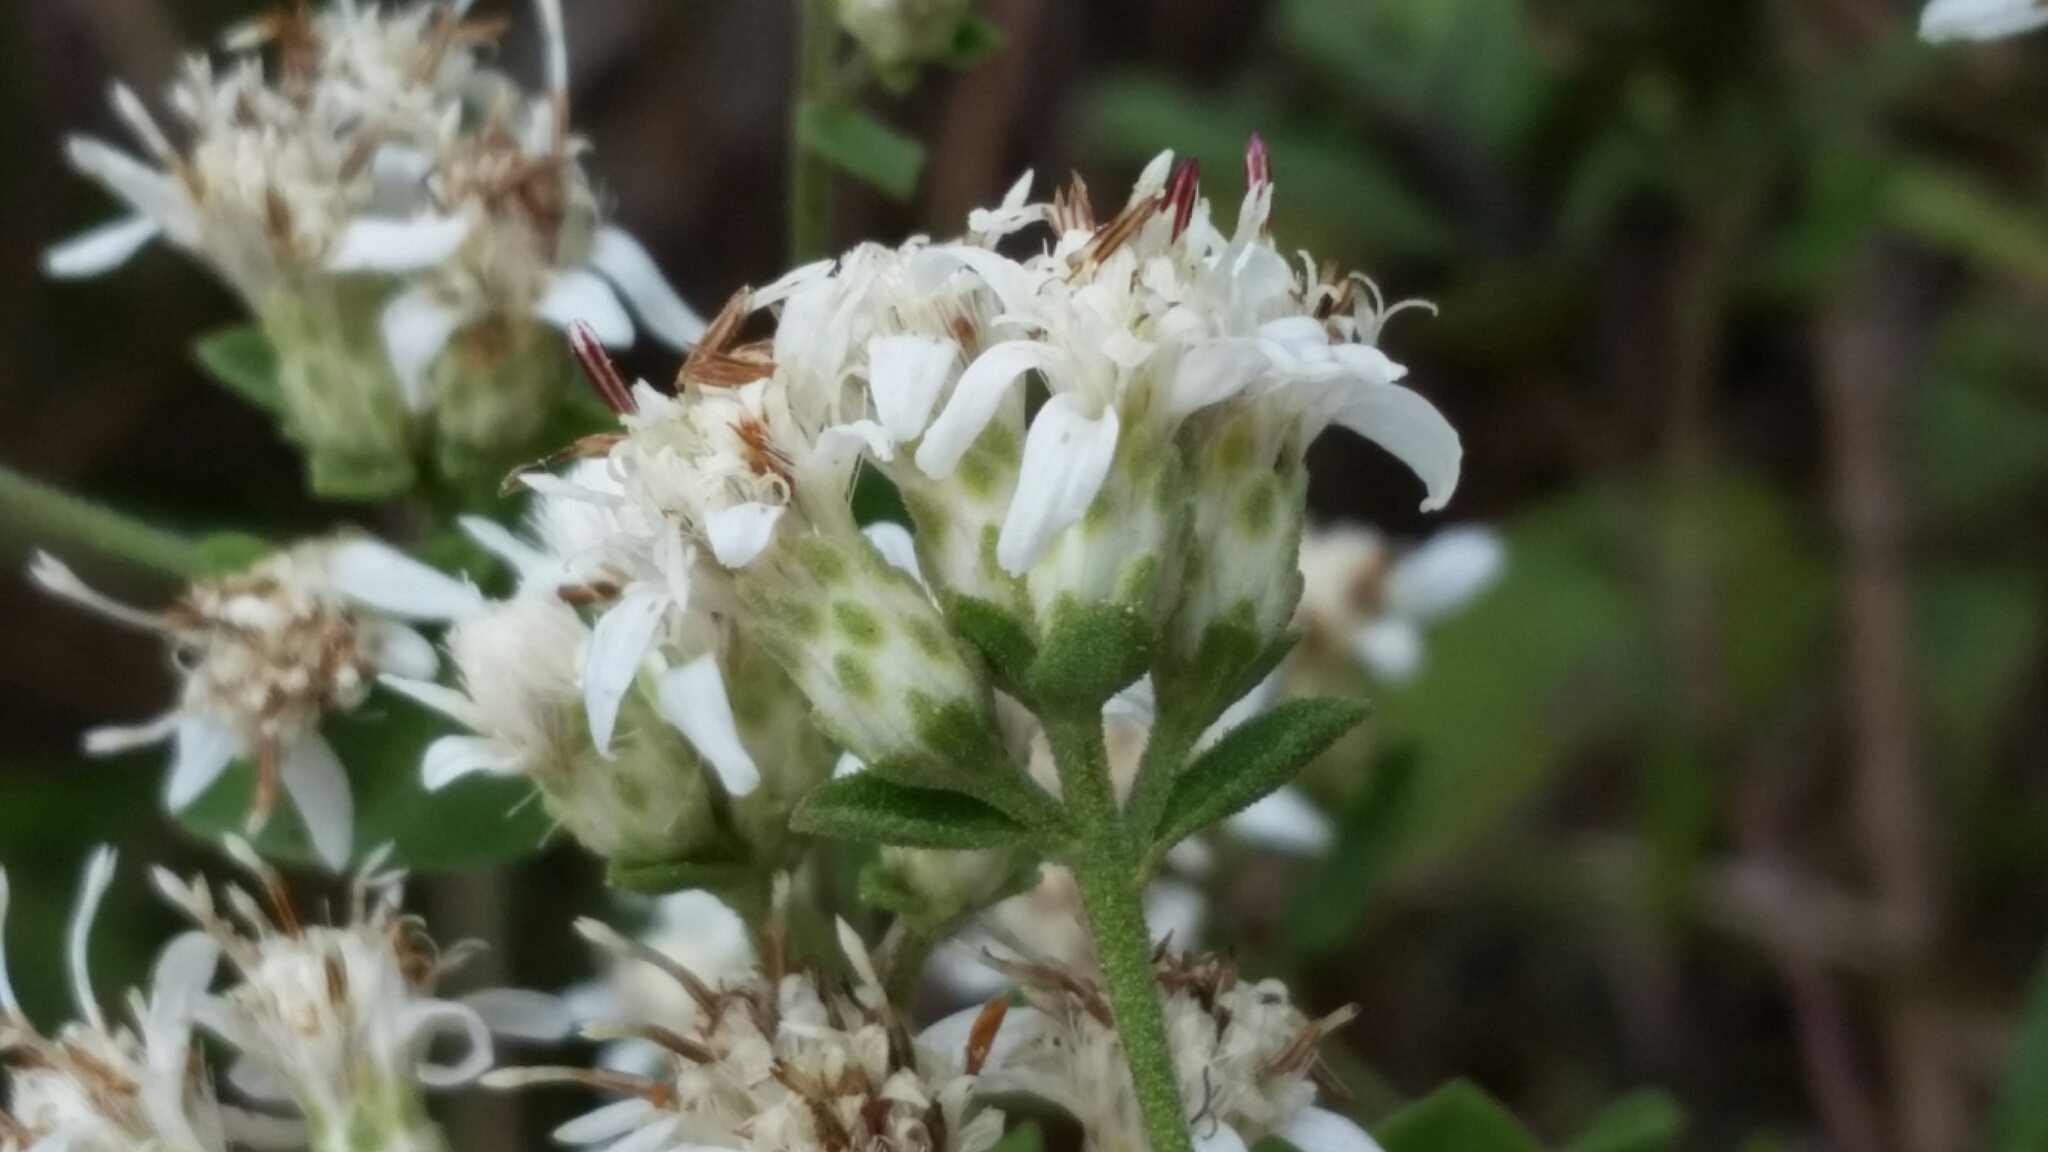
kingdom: Plantae
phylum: Tracheophyta
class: Magnoliopsida
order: Asterales
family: Asteraceae
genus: Sericocarpus
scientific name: Sericocarpus tortifolius
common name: Dixie aster
